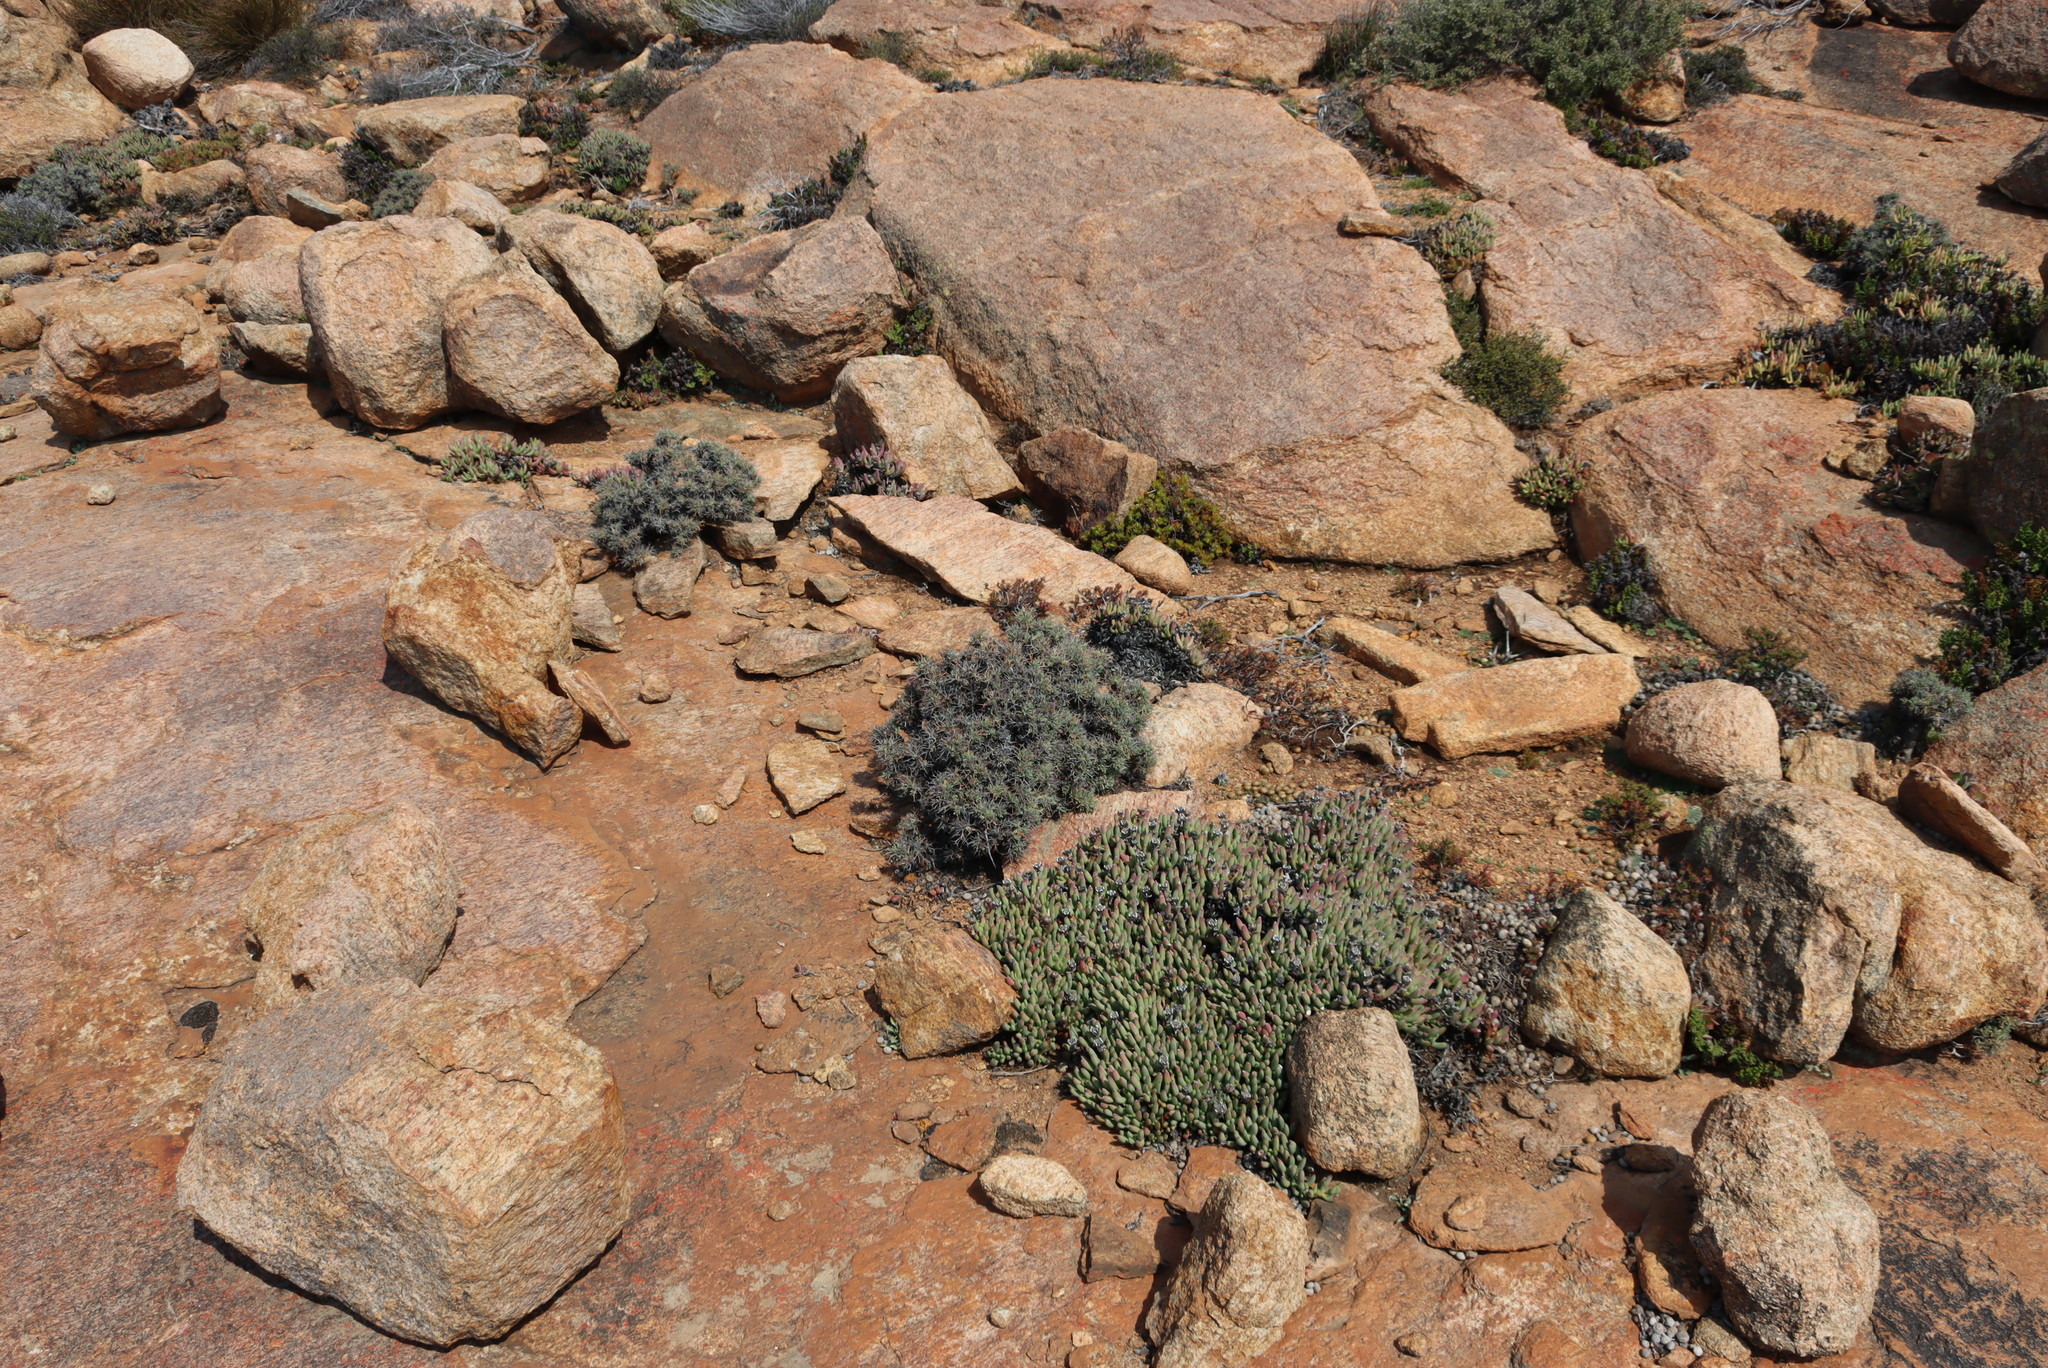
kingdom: Plantae
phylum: Tracheophyta
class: Magnoliopsida
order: Saxifragales
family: Crassulaceae
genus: Tylecodon
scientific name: Tylecodon reticulatus
